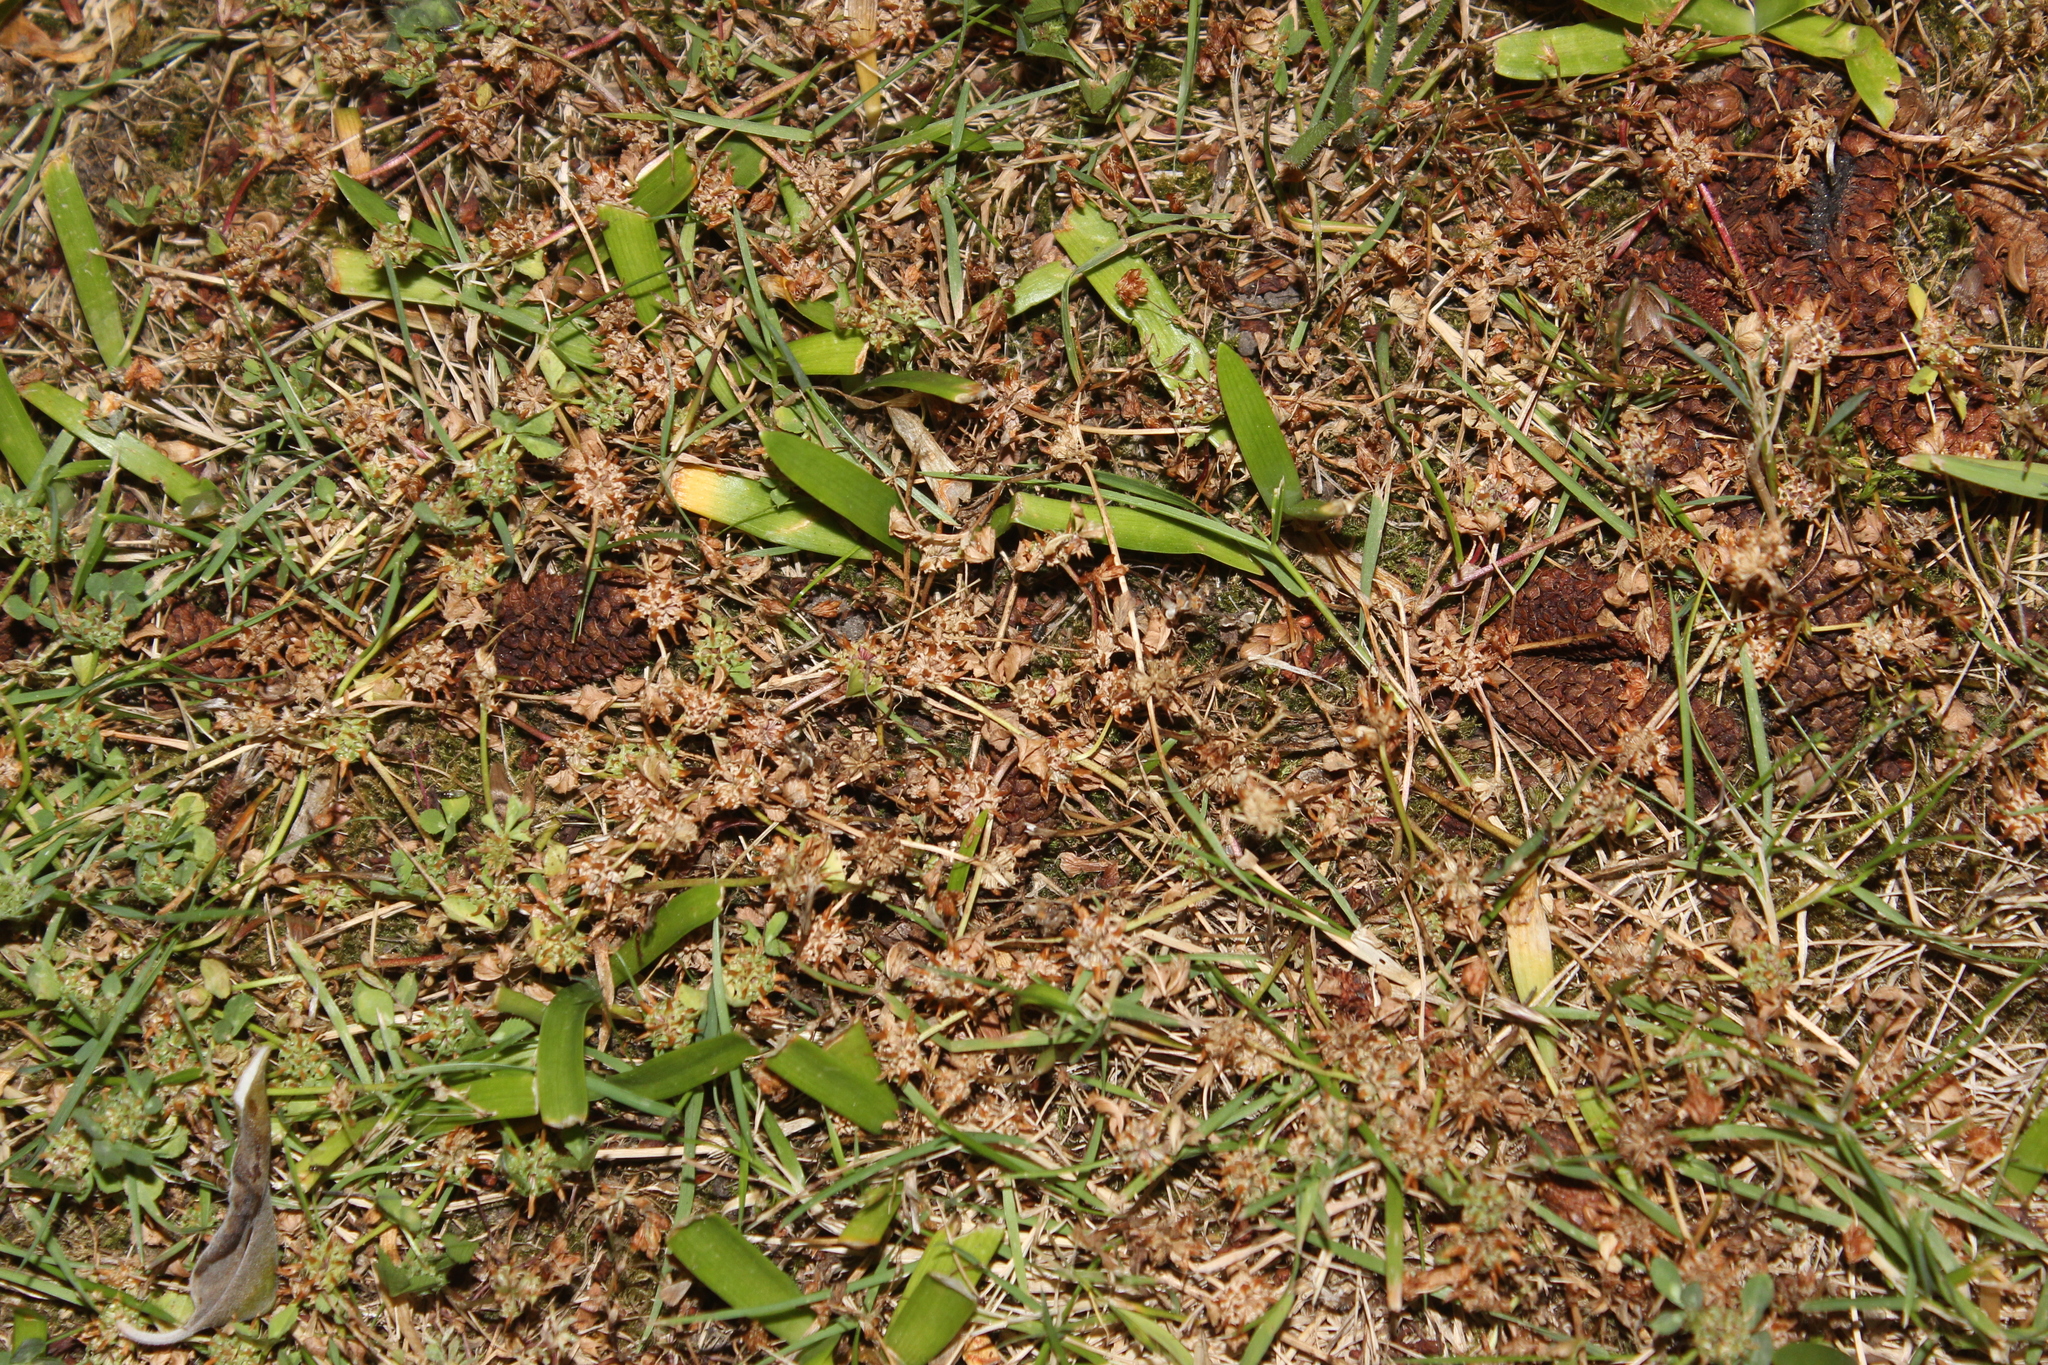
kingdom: Plantae
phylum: Tracheophyta
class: Magnoliopsida
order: Fabales
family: Fabaceae
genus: Trifolium
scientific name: Trifolium glomeratum
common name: Clustered clover
